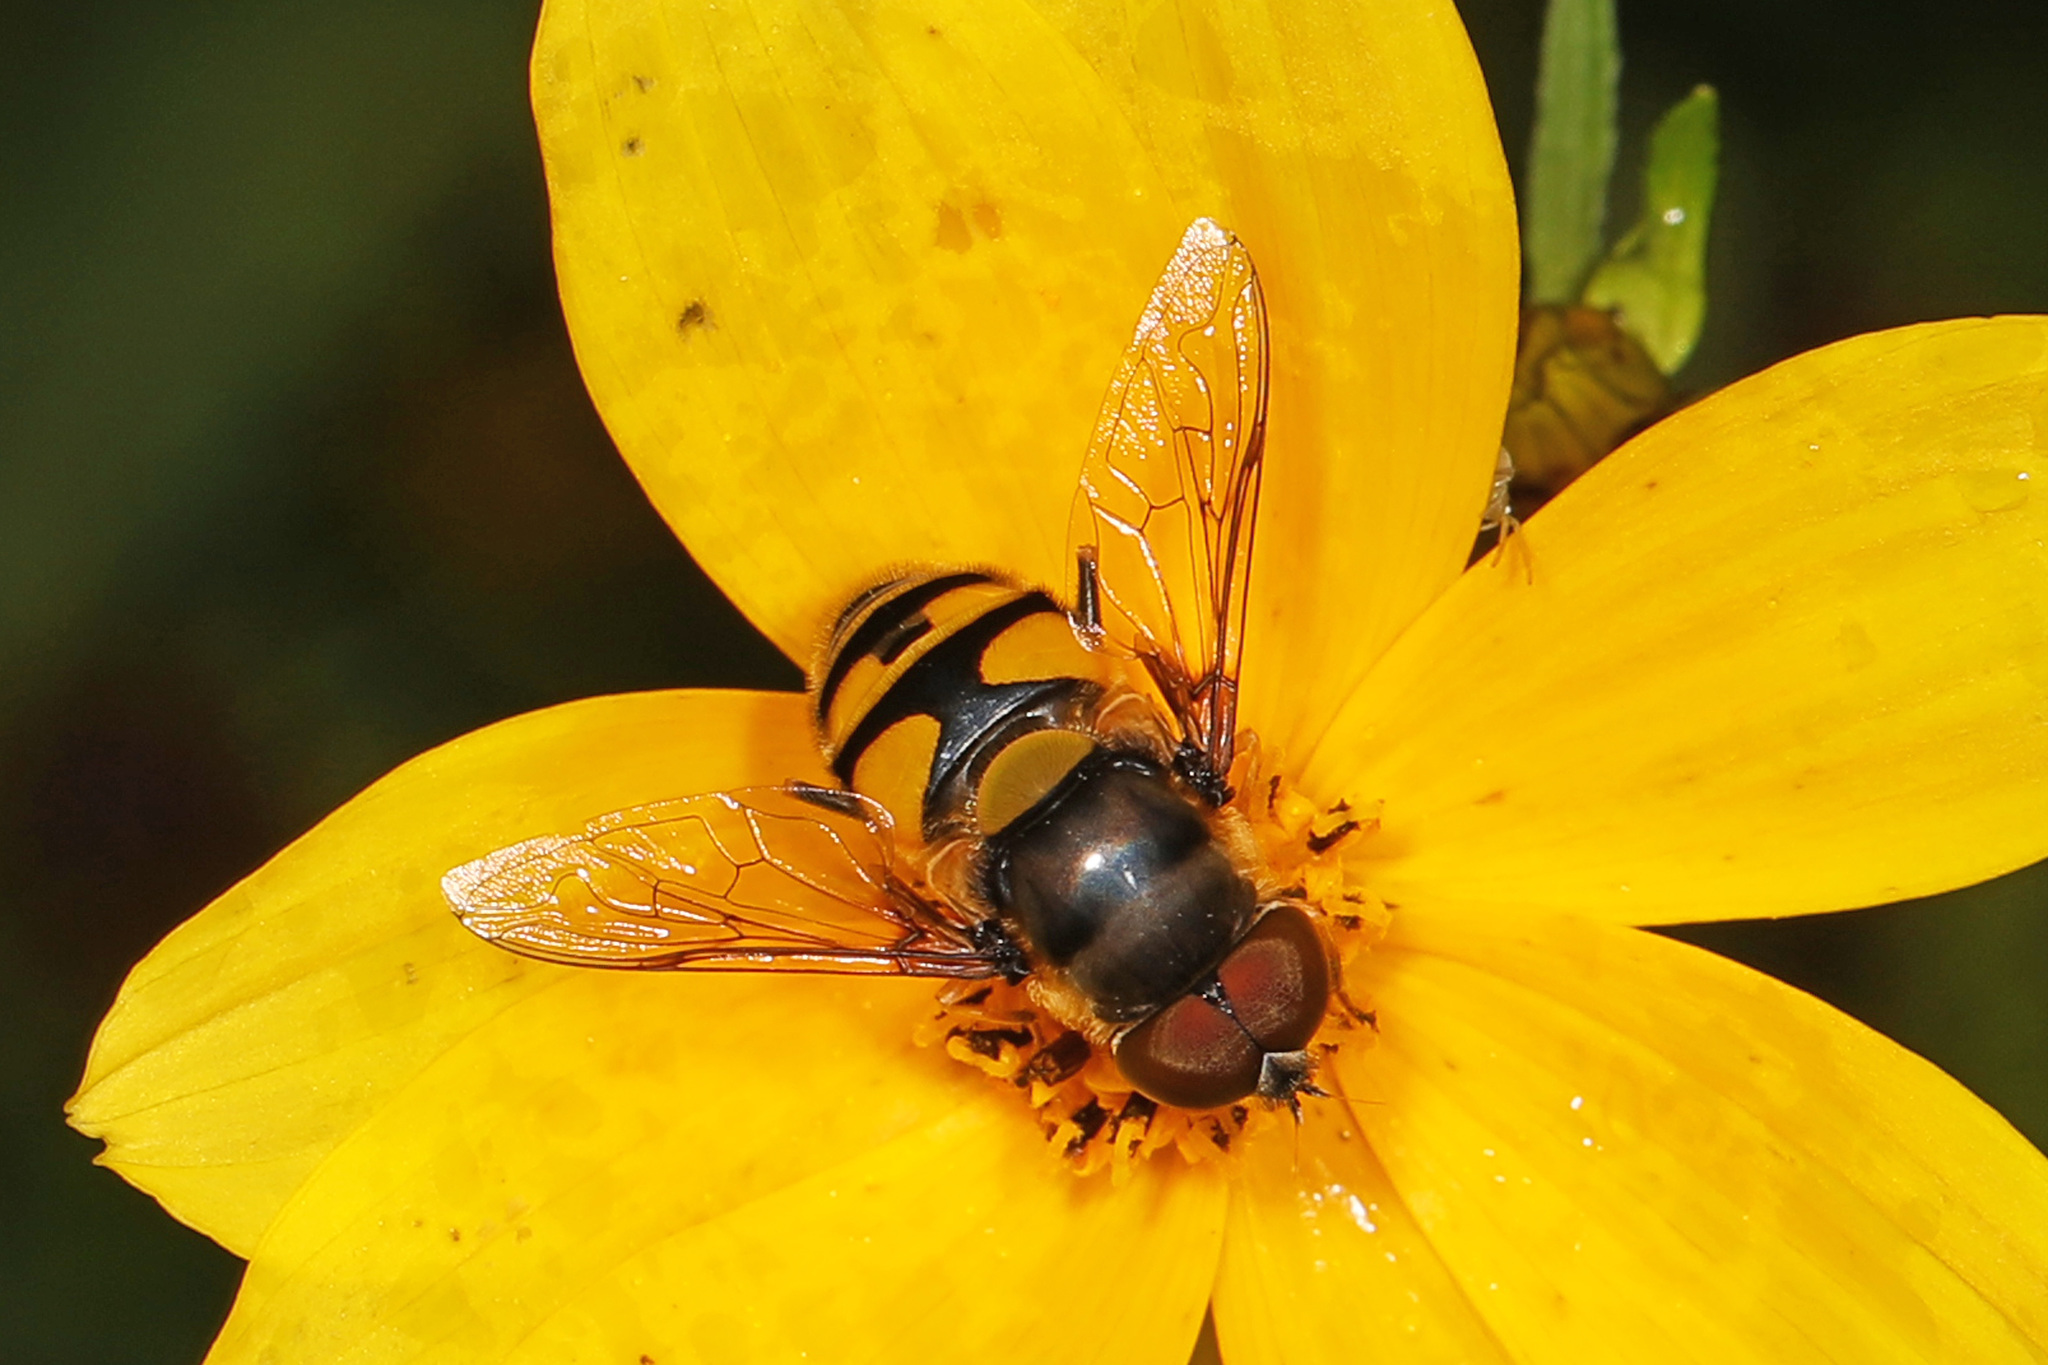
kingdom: Animalia
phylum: Arthropoda
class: Insecta
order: Diptera
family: Syrphidae
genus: Eristalis
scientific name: Eristalis transversa
